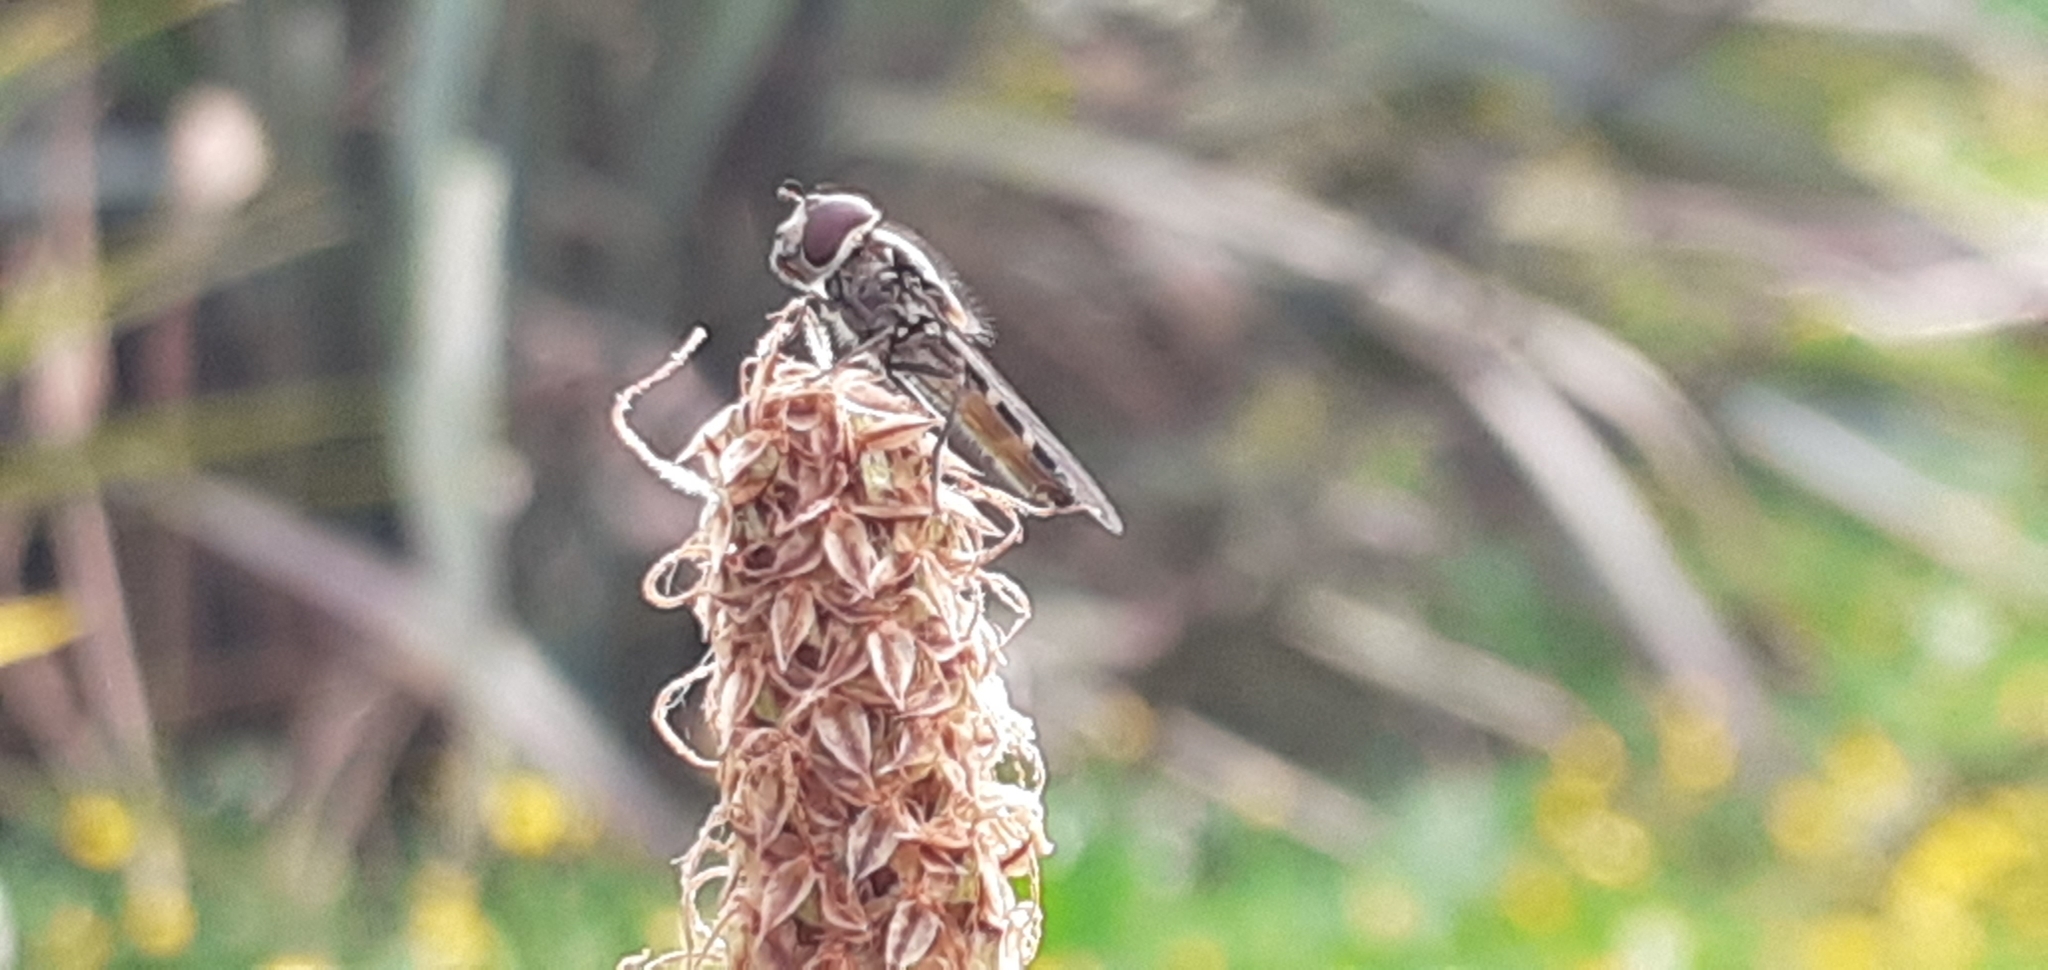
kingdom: Animalia
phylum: Arthropoda
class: Insecta
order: Diptera
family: Syrphidae
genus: Melangyna
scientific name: Melangyna novaezelandiae
